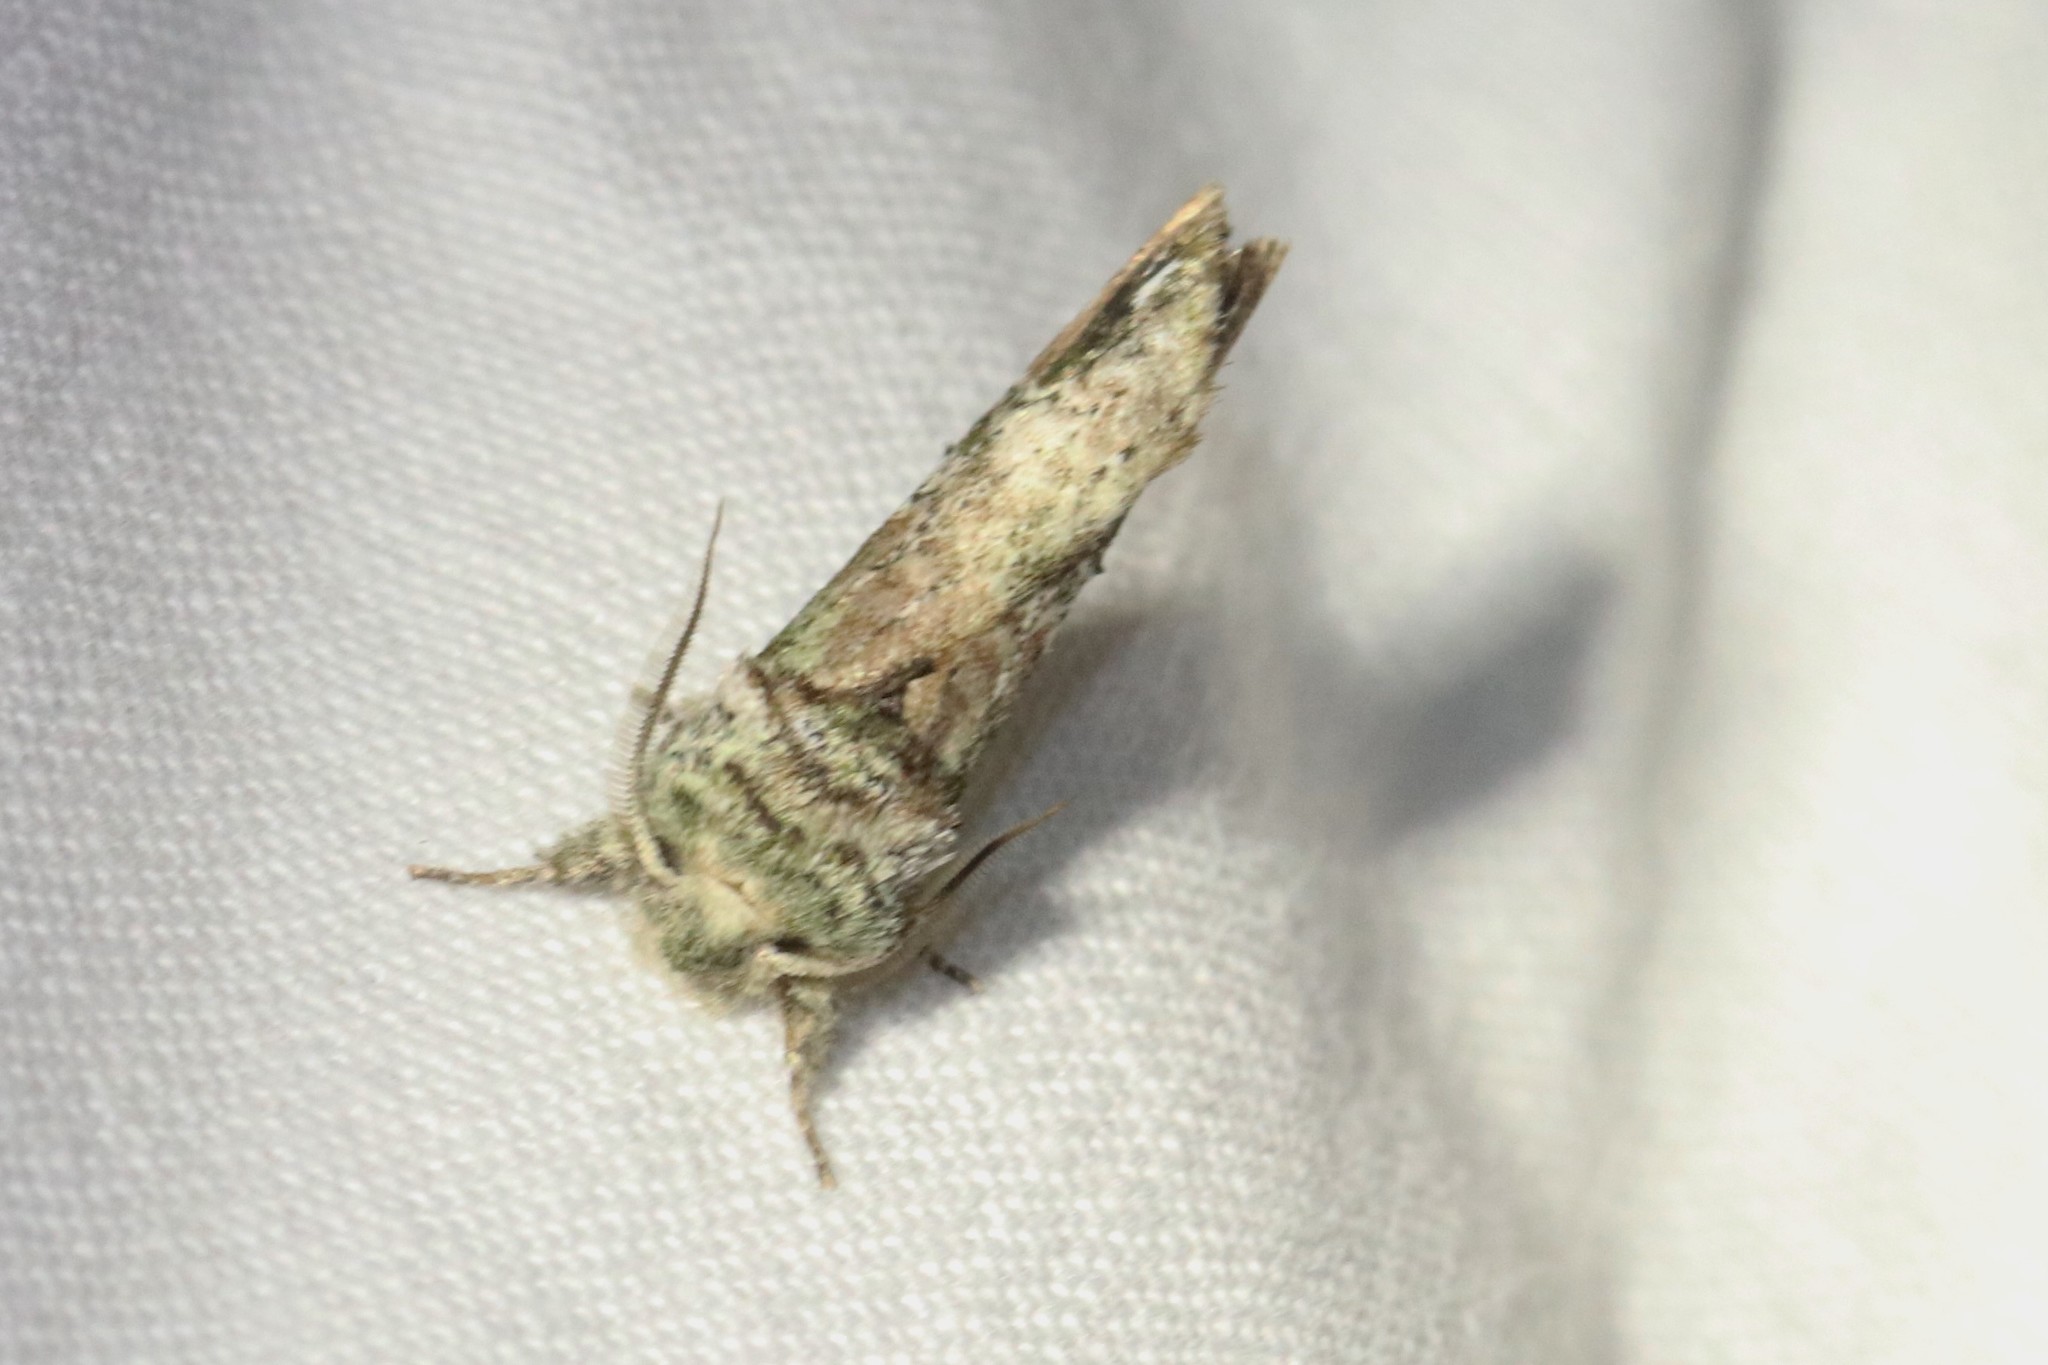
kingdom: Animalia
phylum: Arthropoda
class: Insecta
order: Lepidoptera
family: Notodontidae
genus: Schizura
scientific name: Schizura
